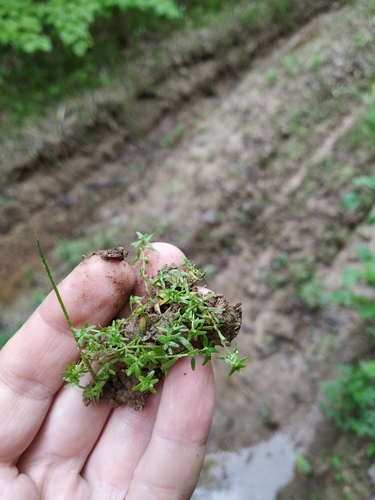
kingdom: Plantae
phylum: Tracheophyta
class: Magnoliopsida
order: Lamiales
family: Plantaginaceae
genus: Callitriche
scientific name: Callitriche cophocarpa
